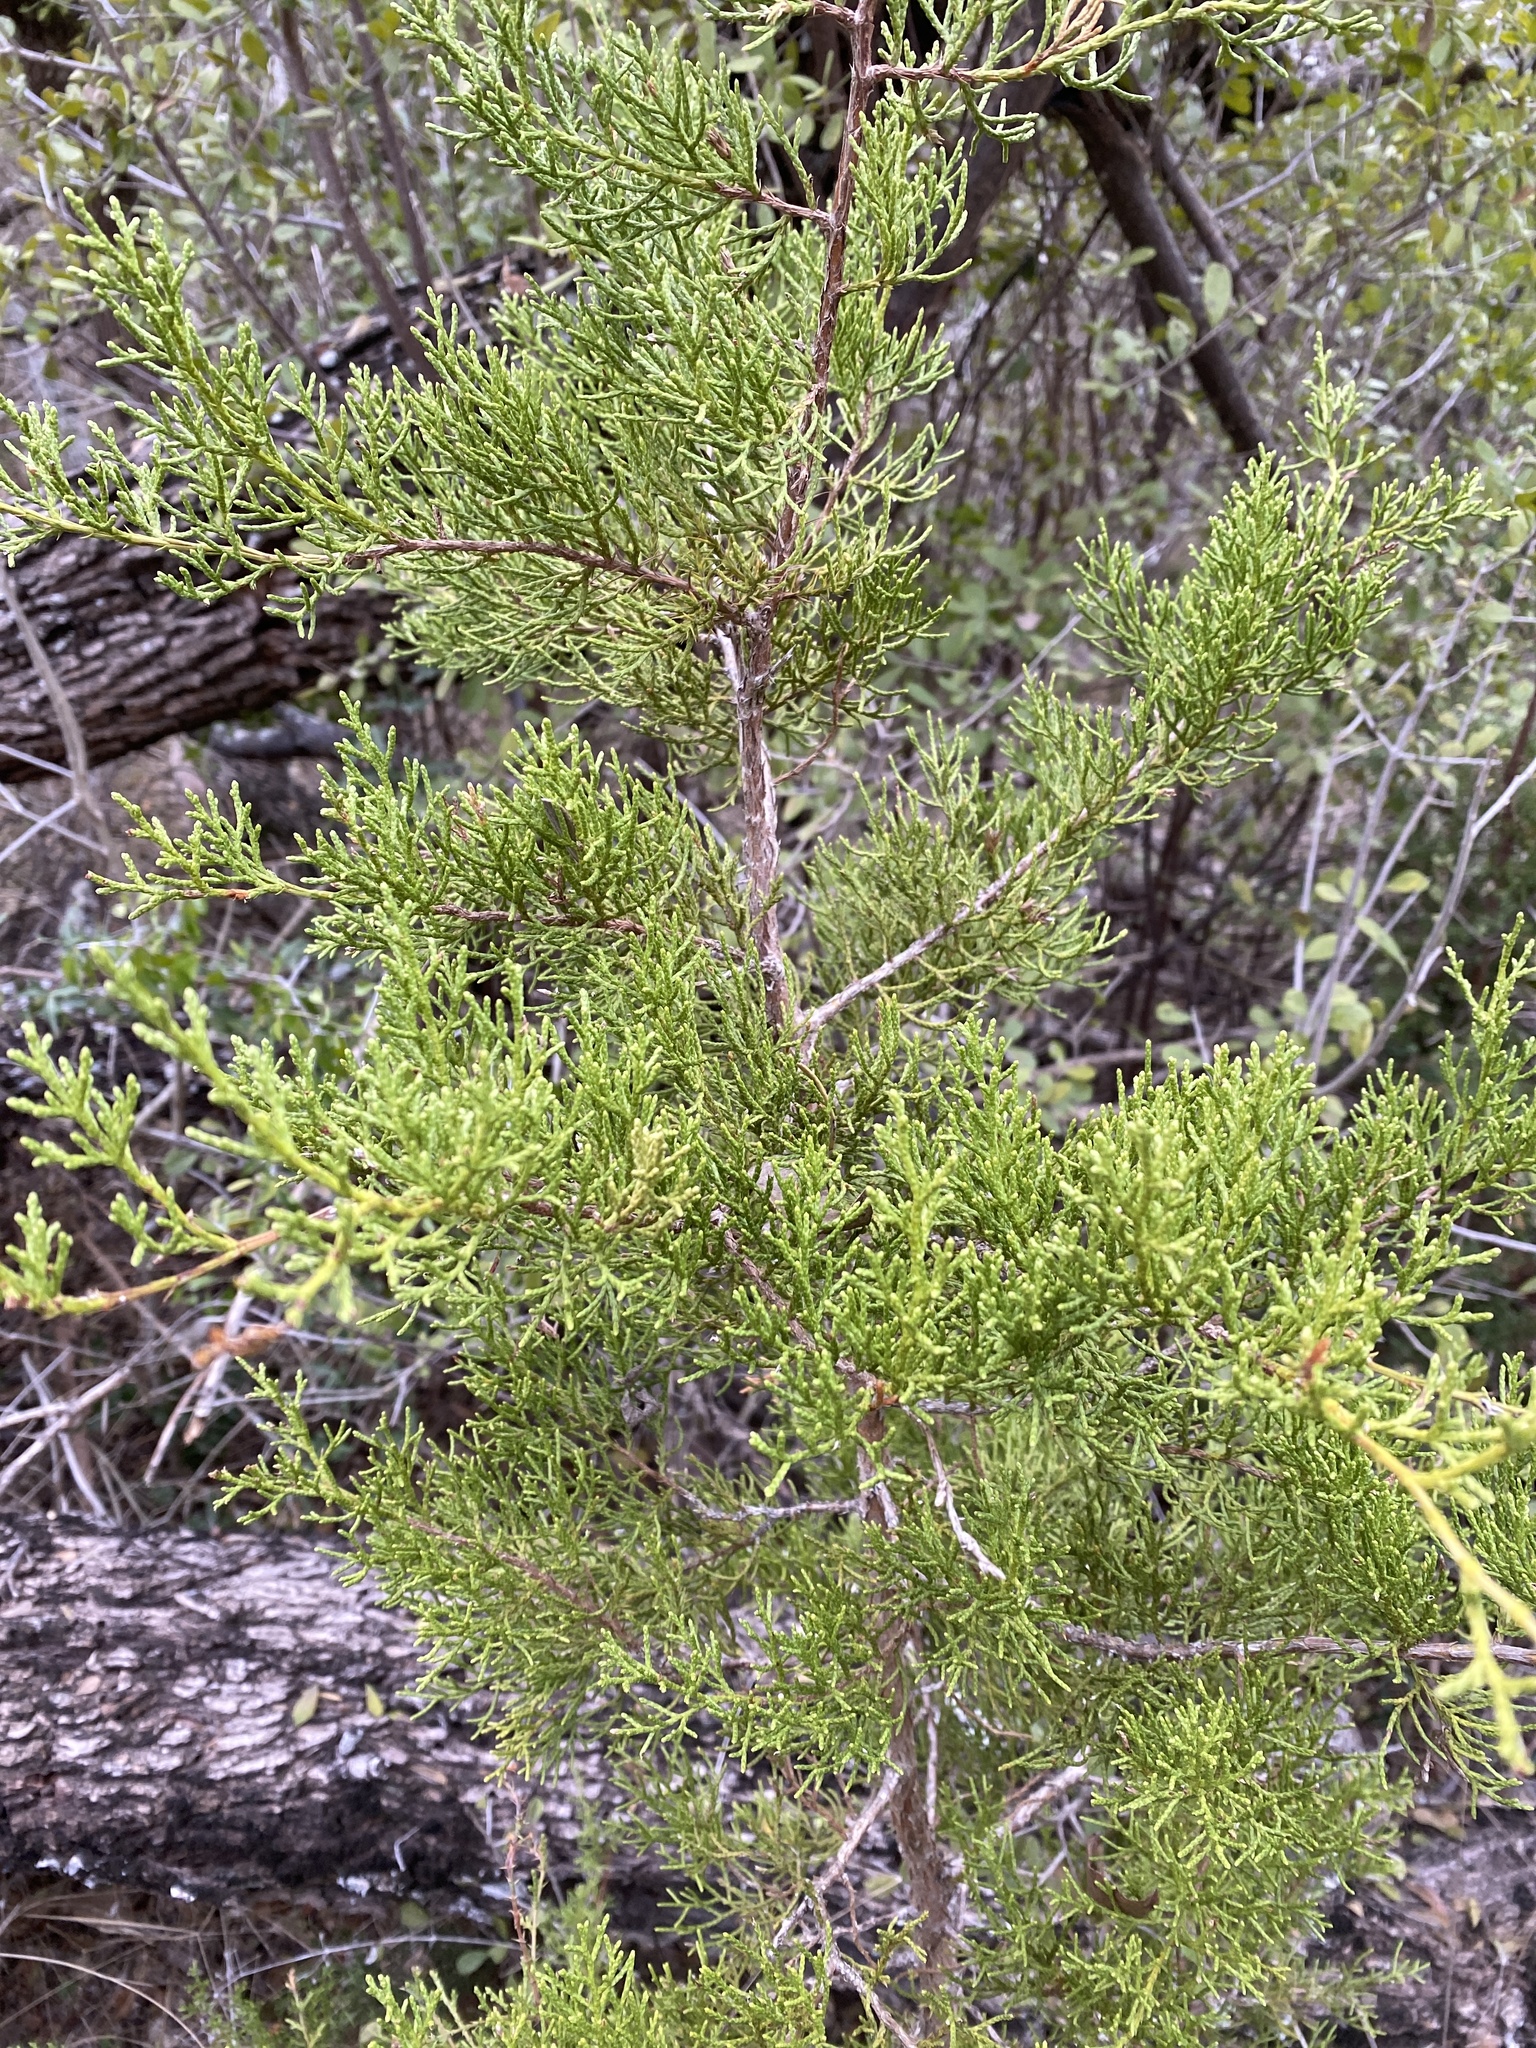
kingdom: Plantae
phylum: Tracheophyta
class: Pinopsida
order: Pinales
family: Cupressaceae
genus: Juniperus
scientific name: Juniperus ashei
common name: Mexican juniper
